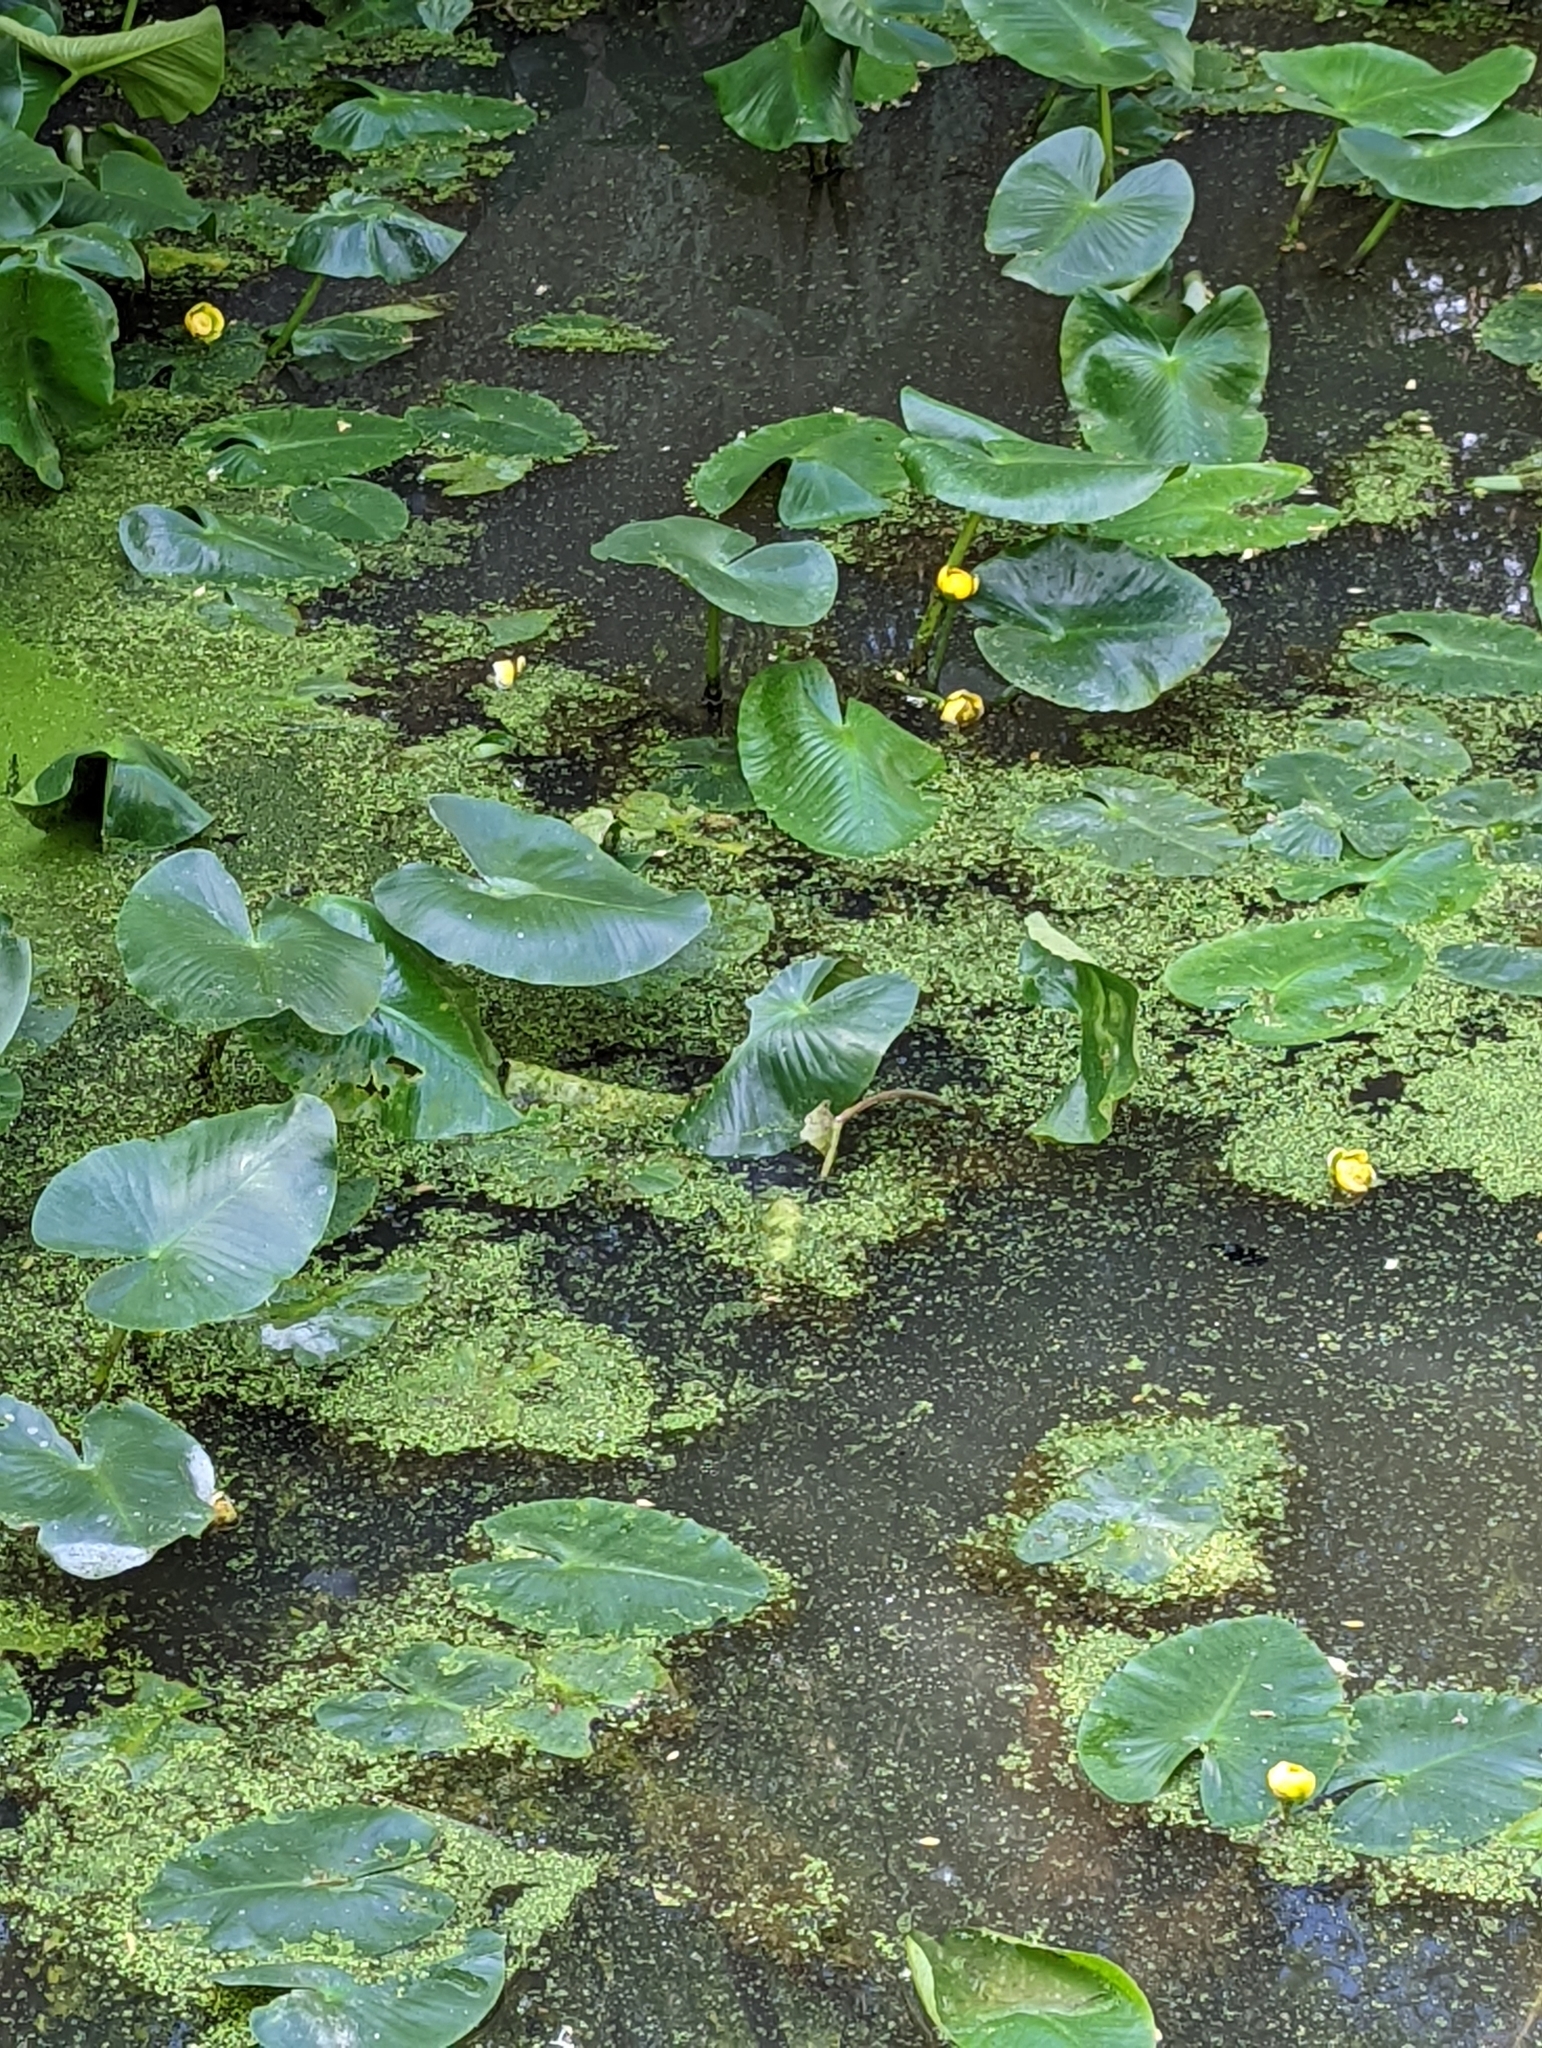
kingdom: Plantae
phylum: Tracheophyta
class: Magnoliopsida
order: Nymphaeales
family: Nymphaeaceae
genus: Nuphar
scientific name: Nuphar advena
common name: Spatter-dock
